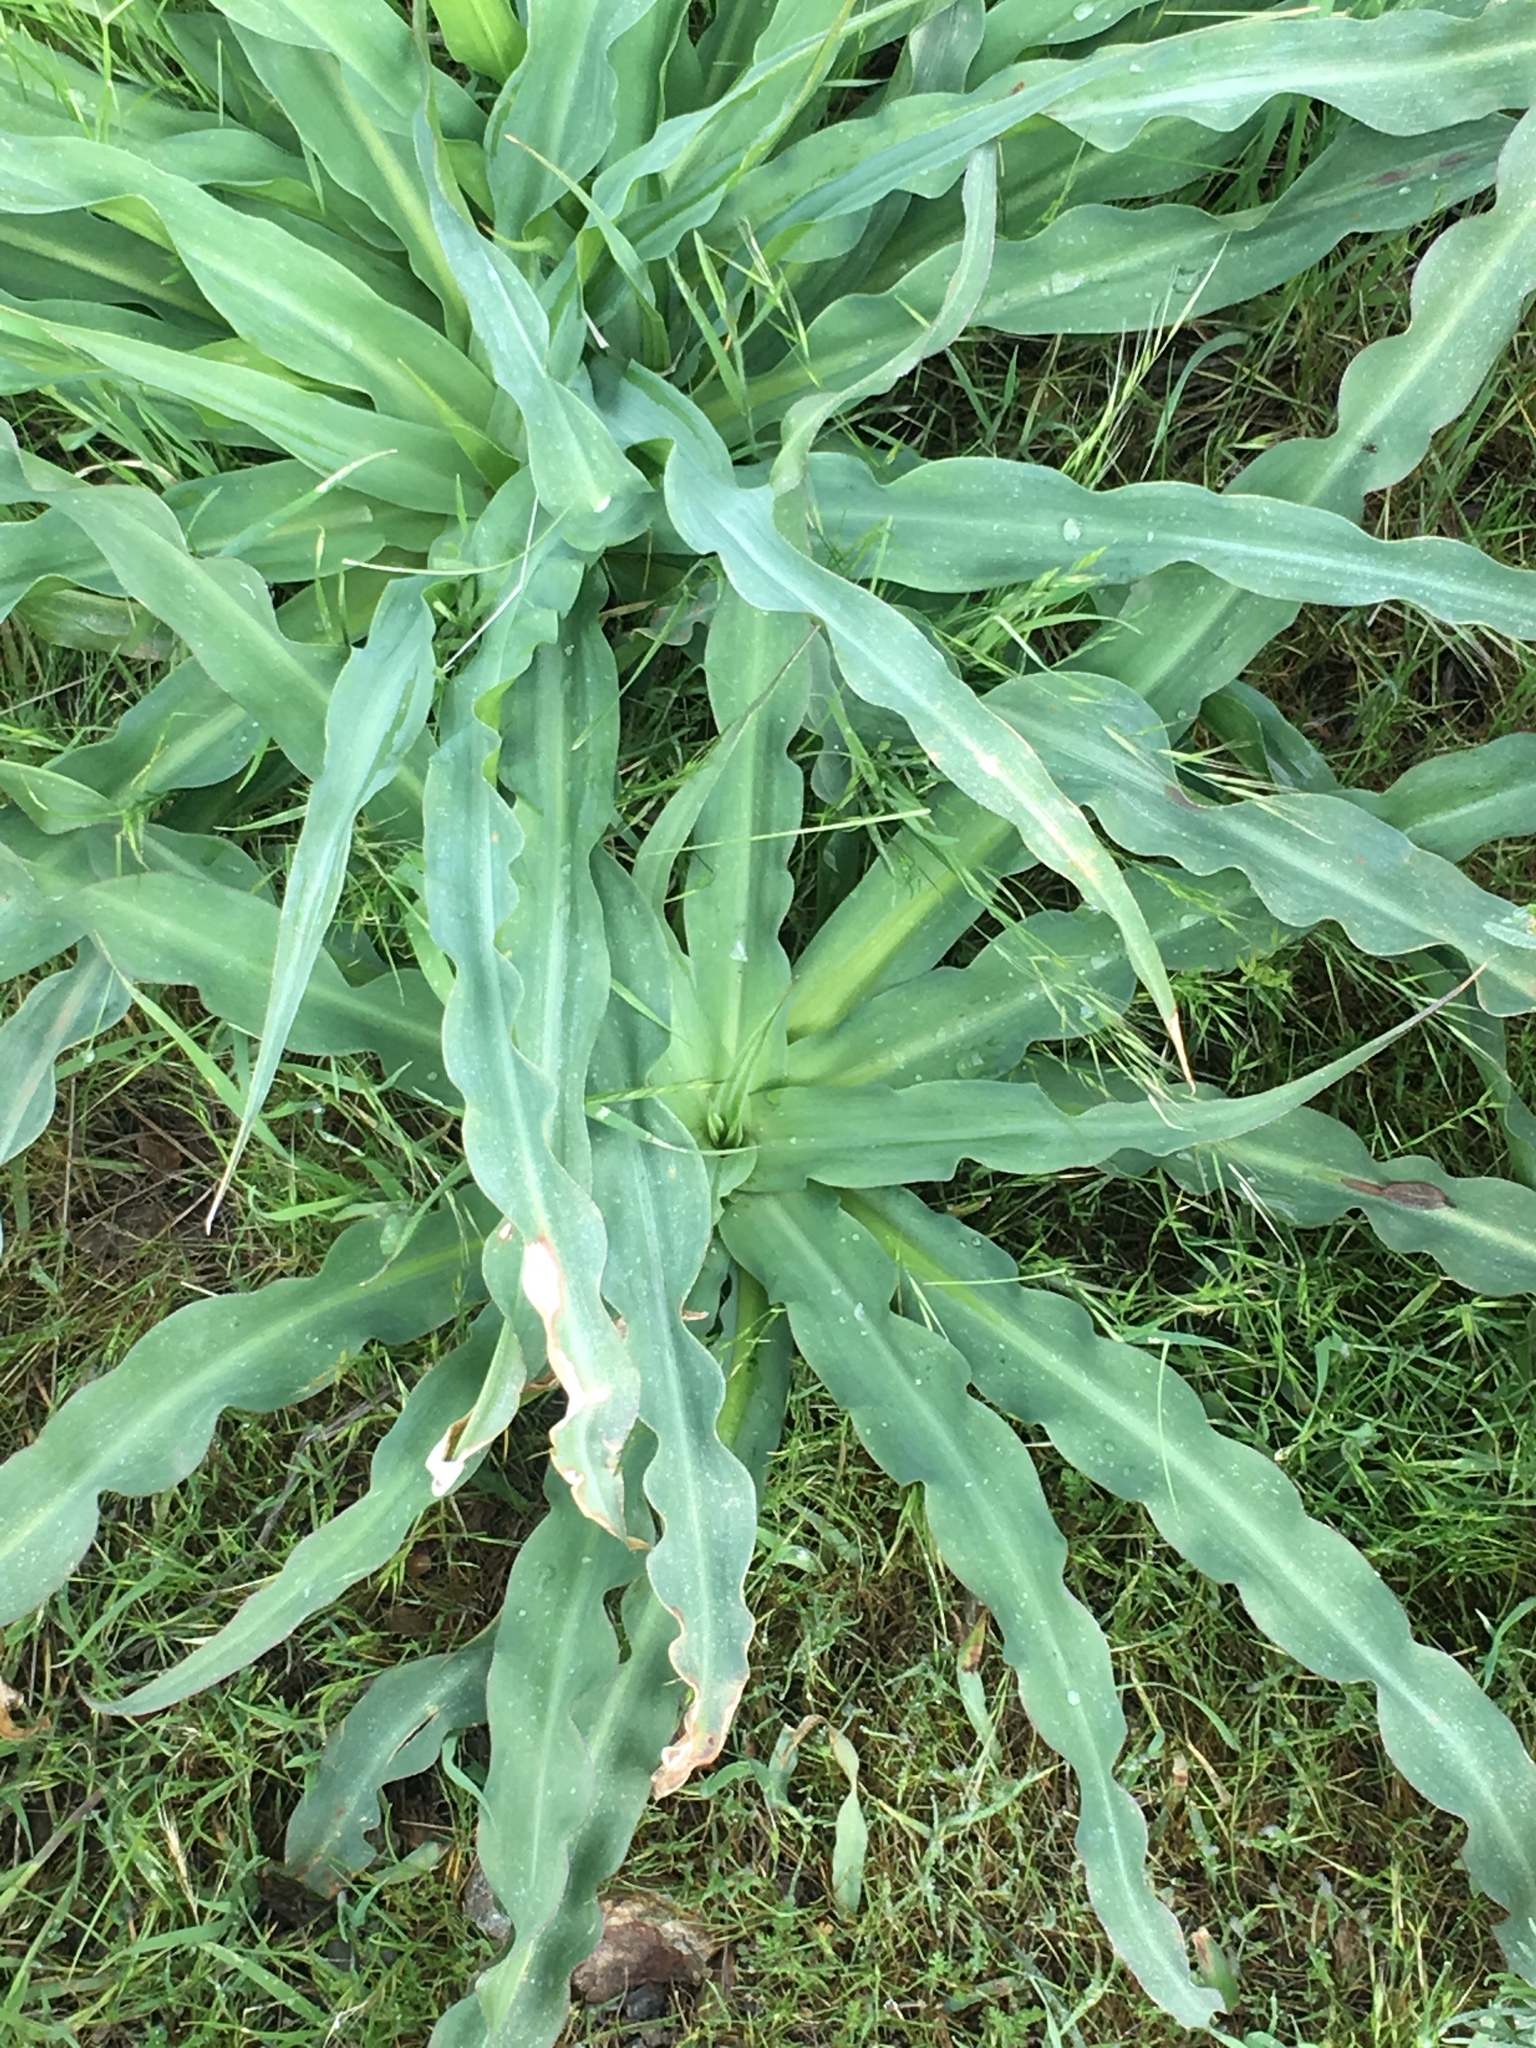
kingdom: Plantae
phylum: Tracheophyta
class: Liliopsida
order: Asparagales
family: Asparagaceae
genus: Chlorogalum
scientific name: Chlorogalum pomeridianum
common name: Amole
